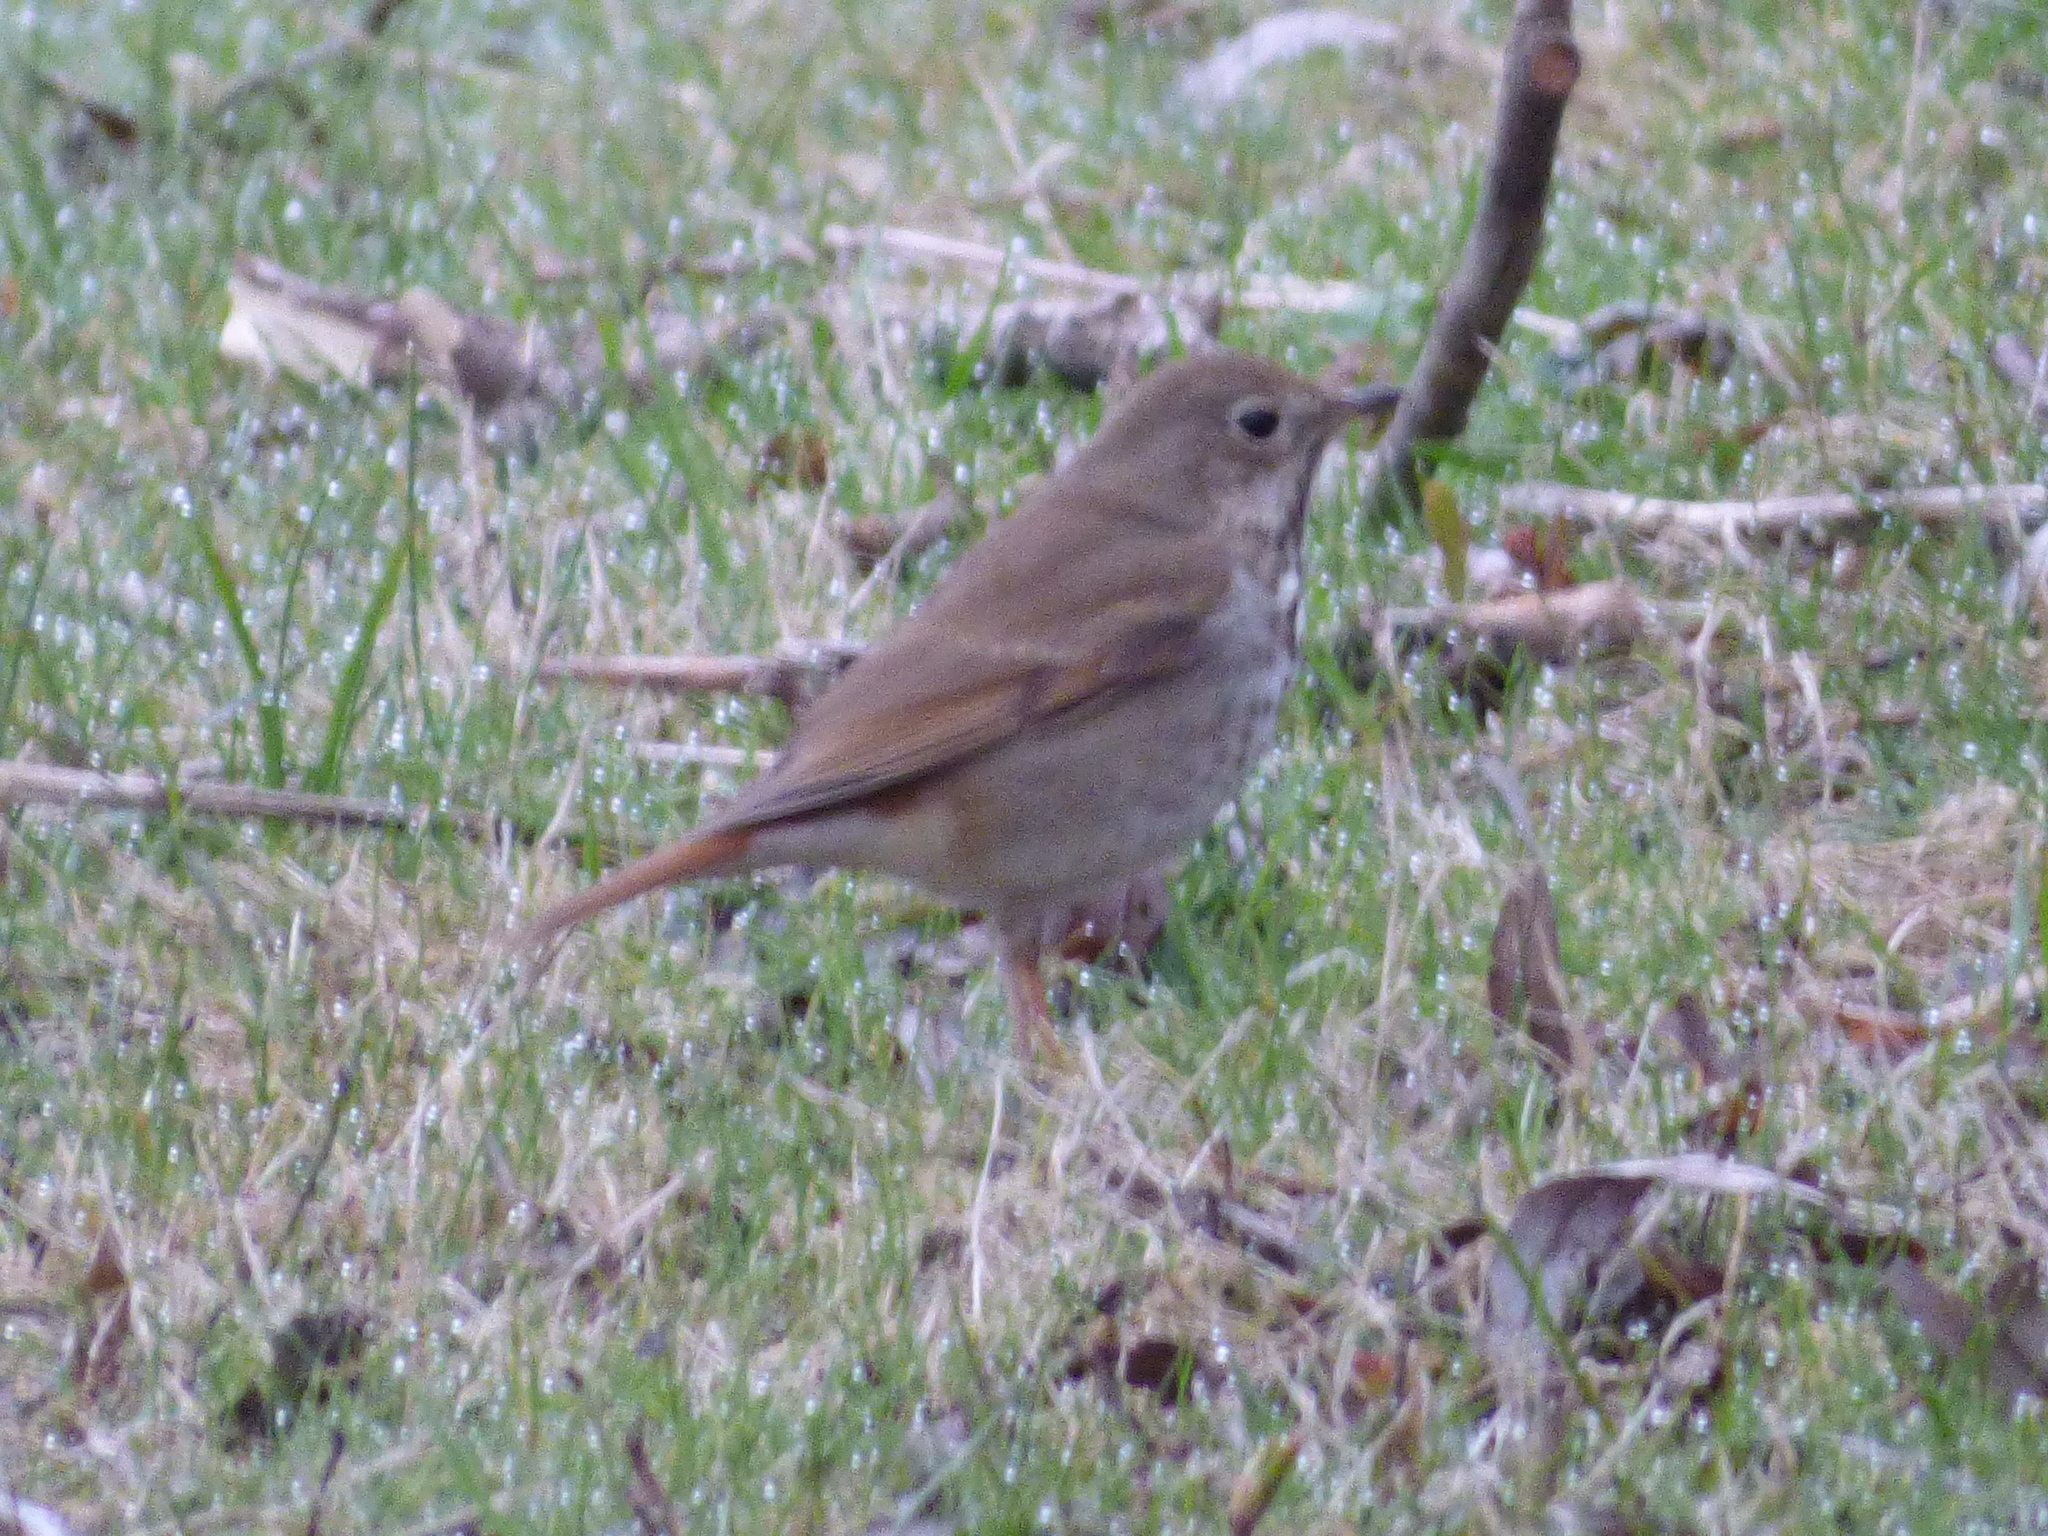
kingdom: Animalia
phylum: Chordata
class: Aves
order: Passeriformes
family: Turdidae
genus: Catharus
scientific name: Catharus guttatus
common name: Hermit thrush
